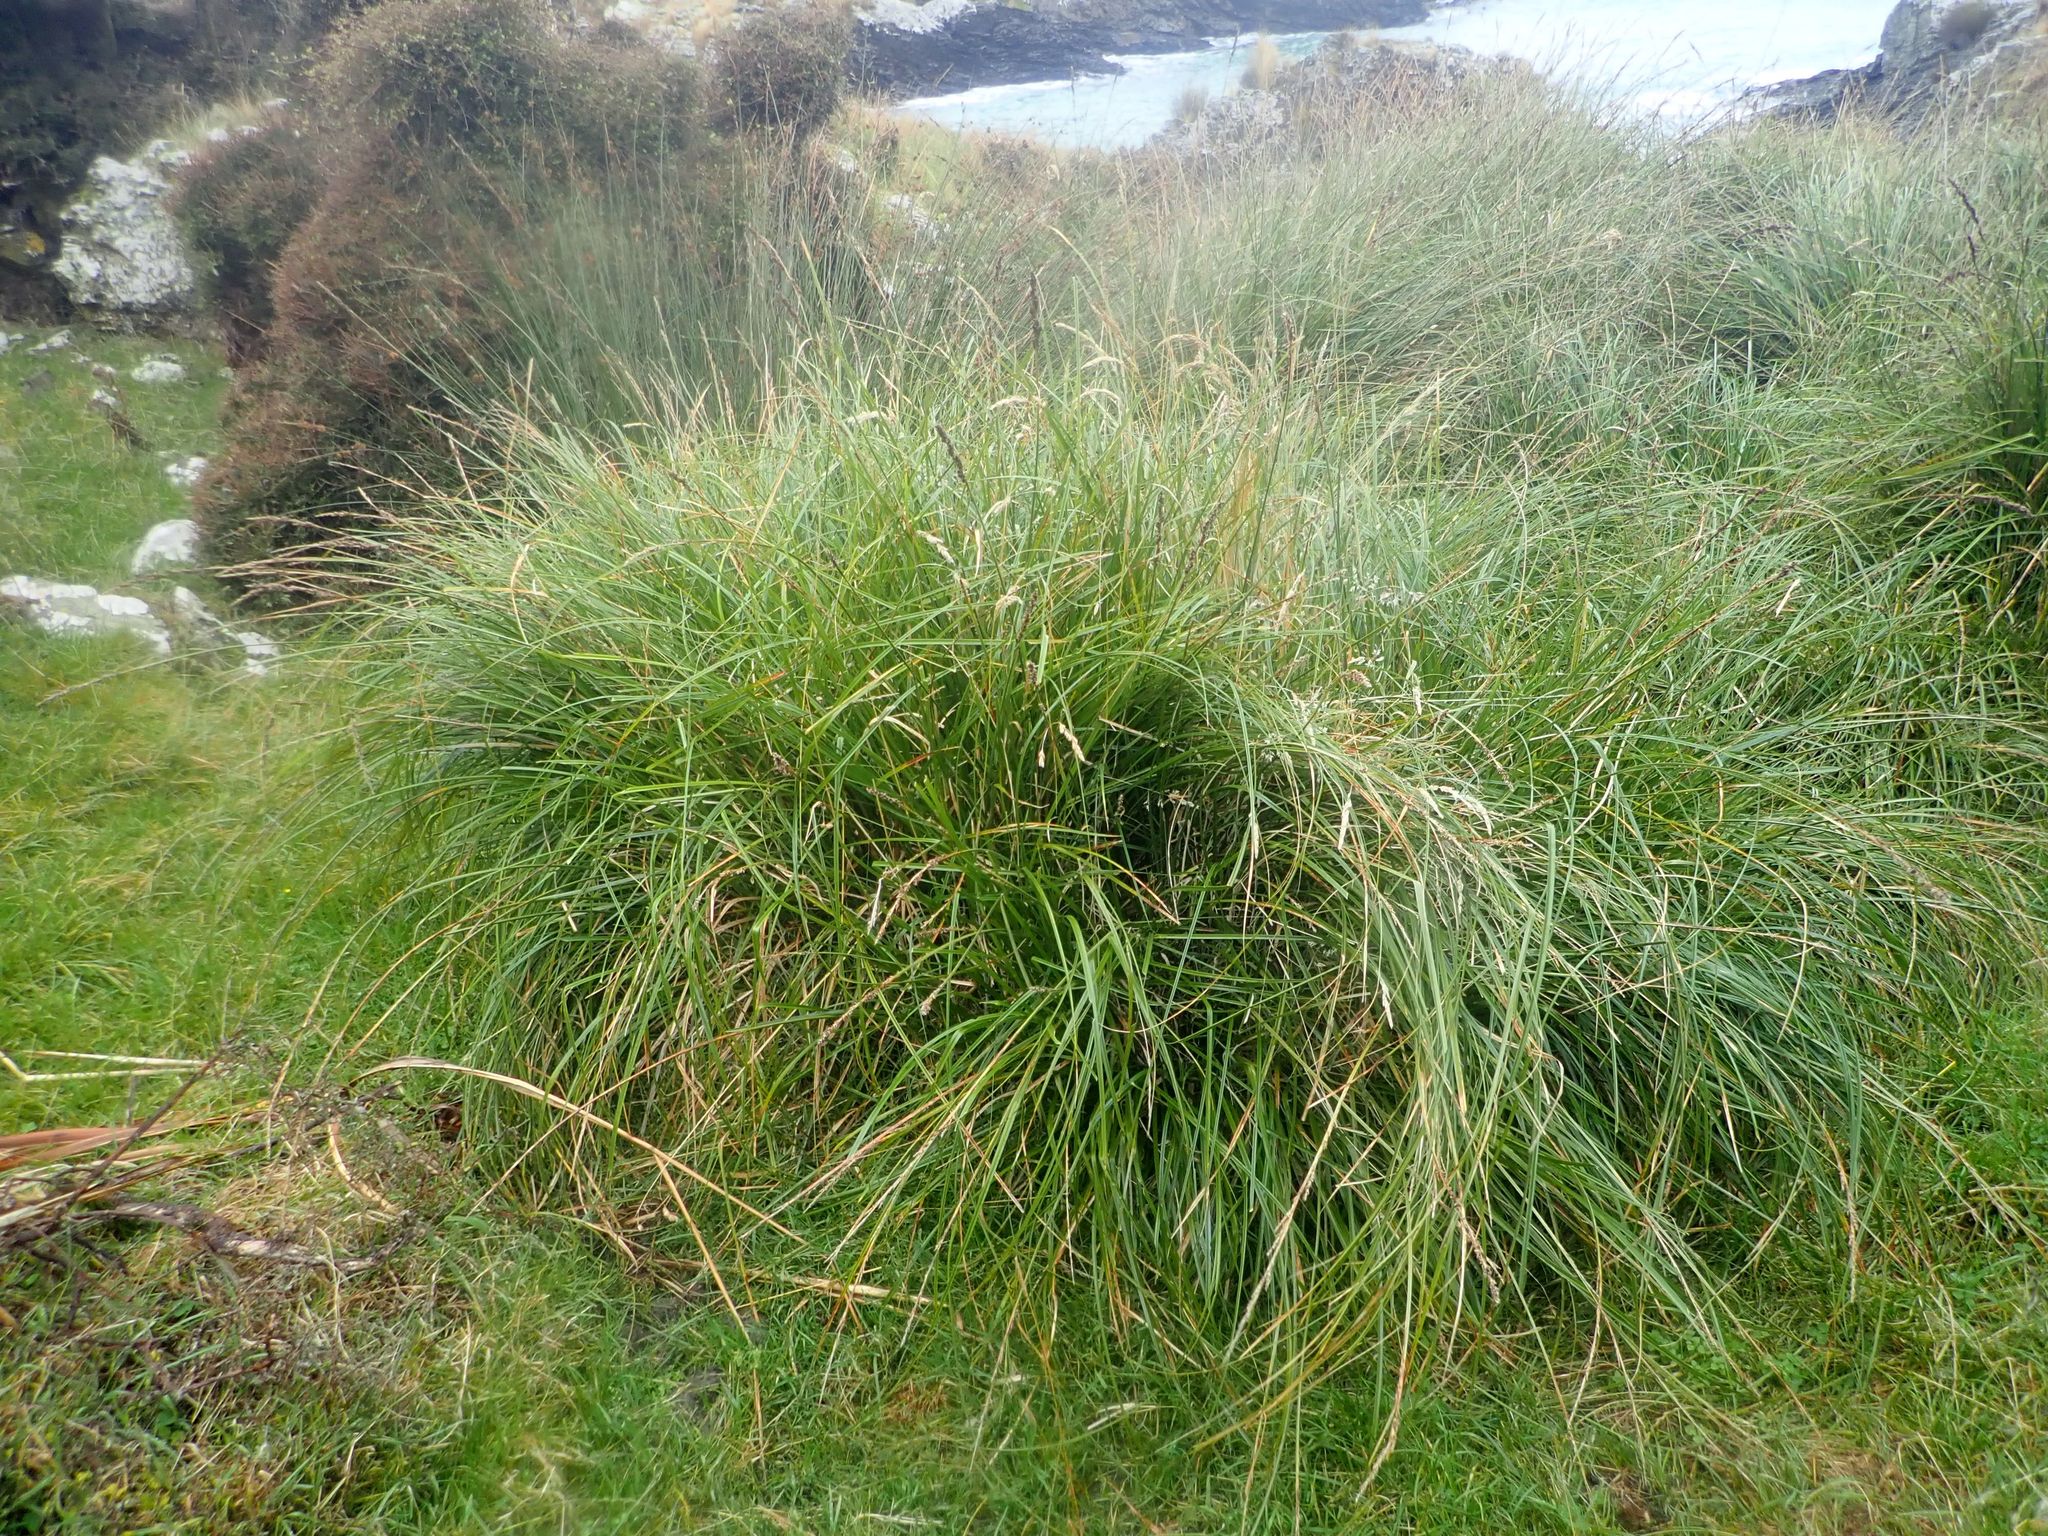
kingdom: Plantae
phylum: Tracheophyta
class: Liliopsida
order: Poales
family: Cyperaceae
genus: Carex
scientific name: Carex appressa
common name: Tussock sedge
